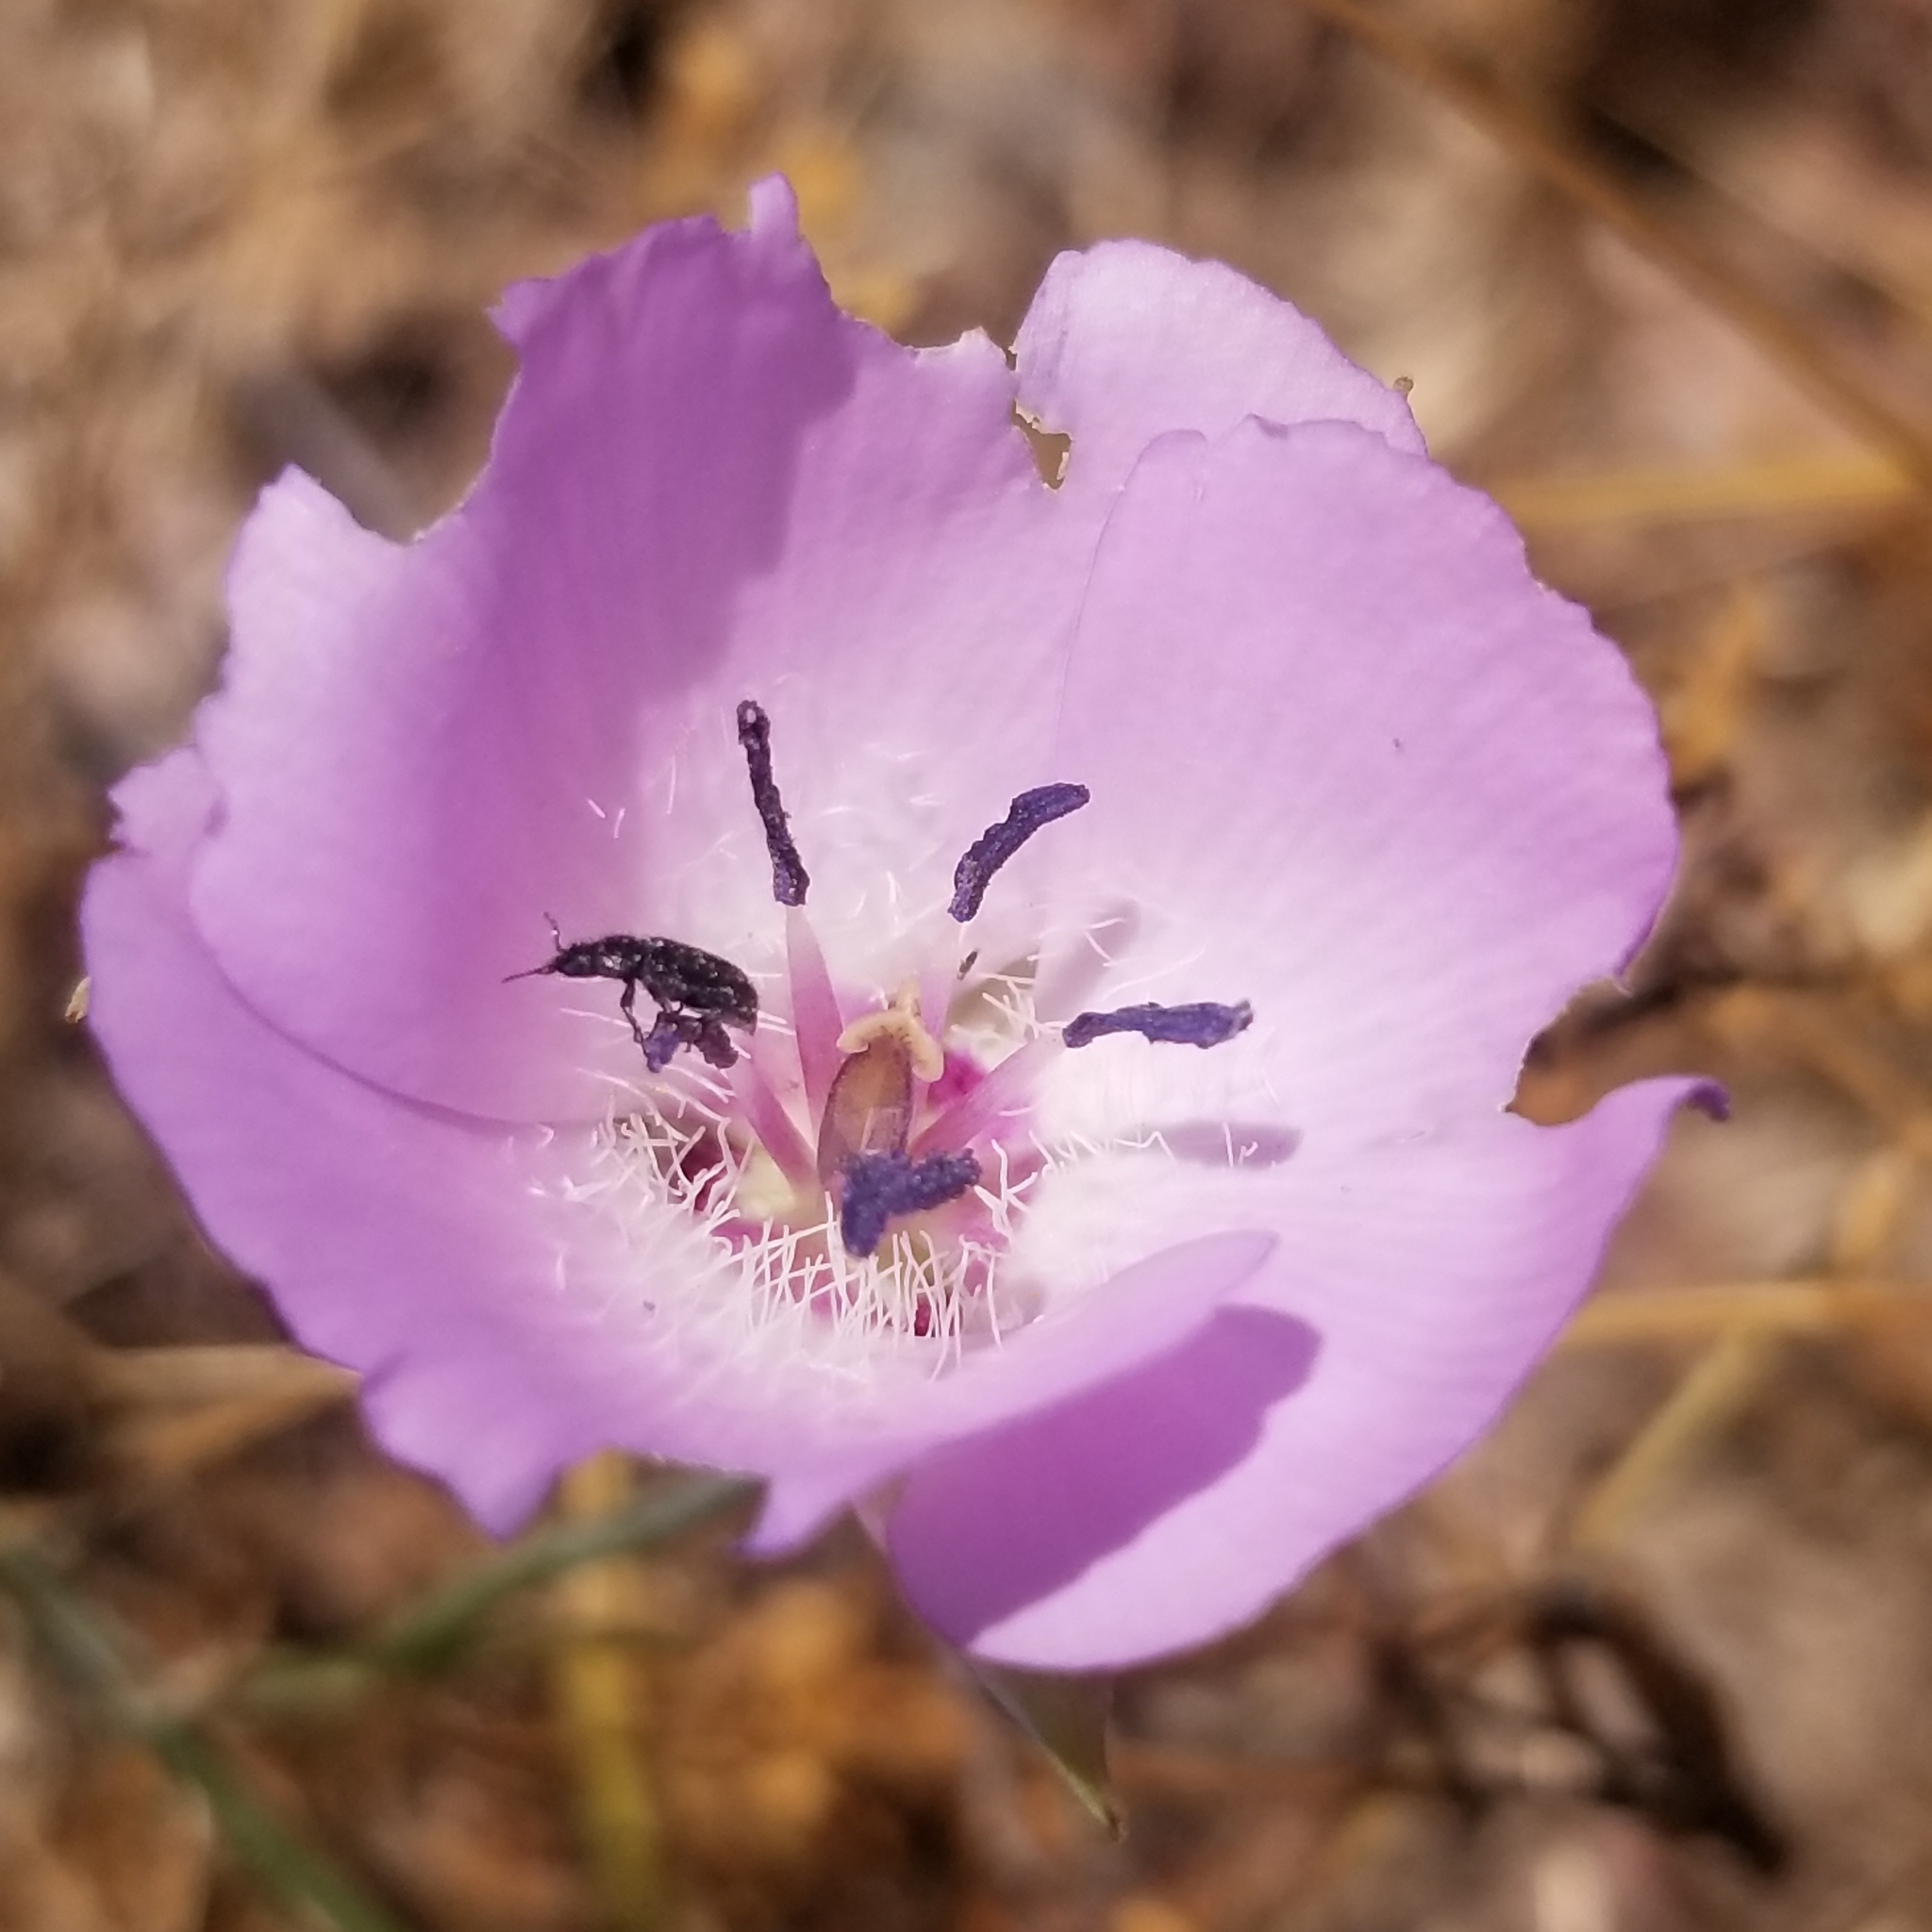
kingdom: Plantae
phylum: Tracheophyta
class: Liliopsida
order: Liliales
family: Liliaceae
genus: Calochortus
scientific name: Calochortus splendens
